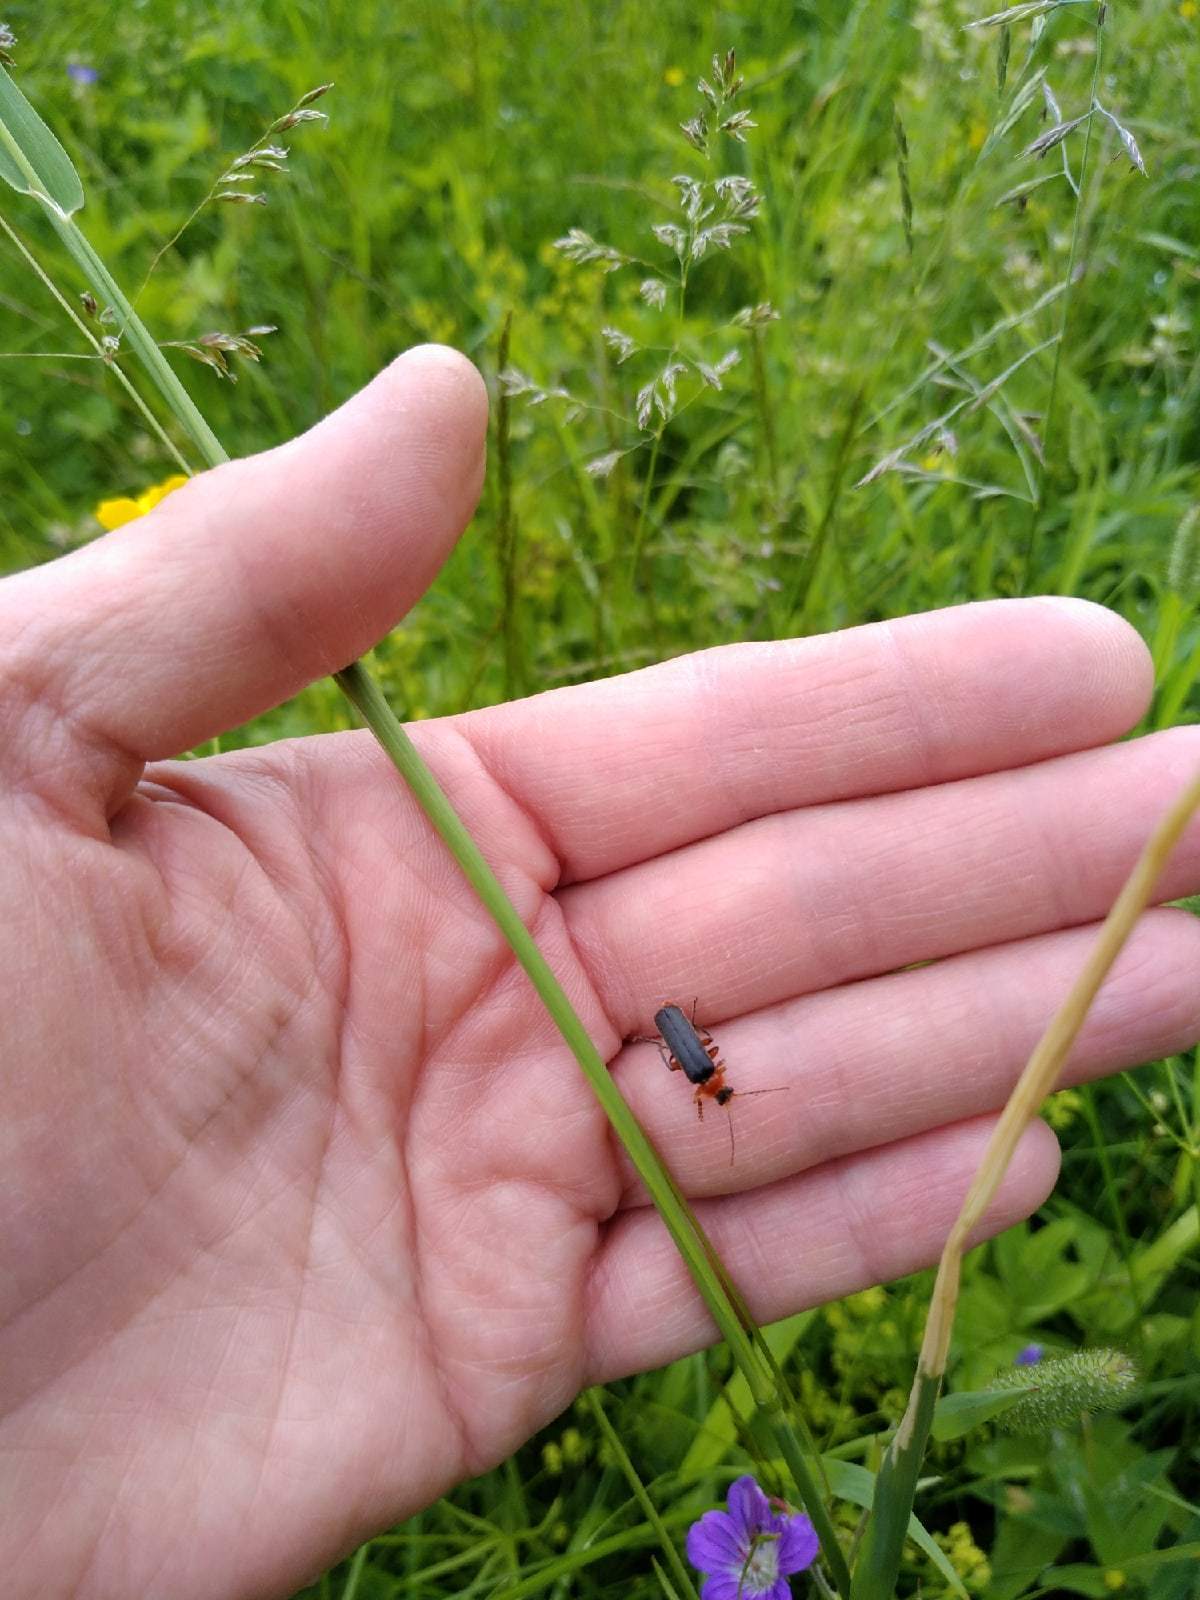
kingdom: Animalia
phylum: Arthropoda
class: Insecta
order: Coleoptera
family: Cantharidae
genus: Cantharis
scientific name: Cantharis pellucida
